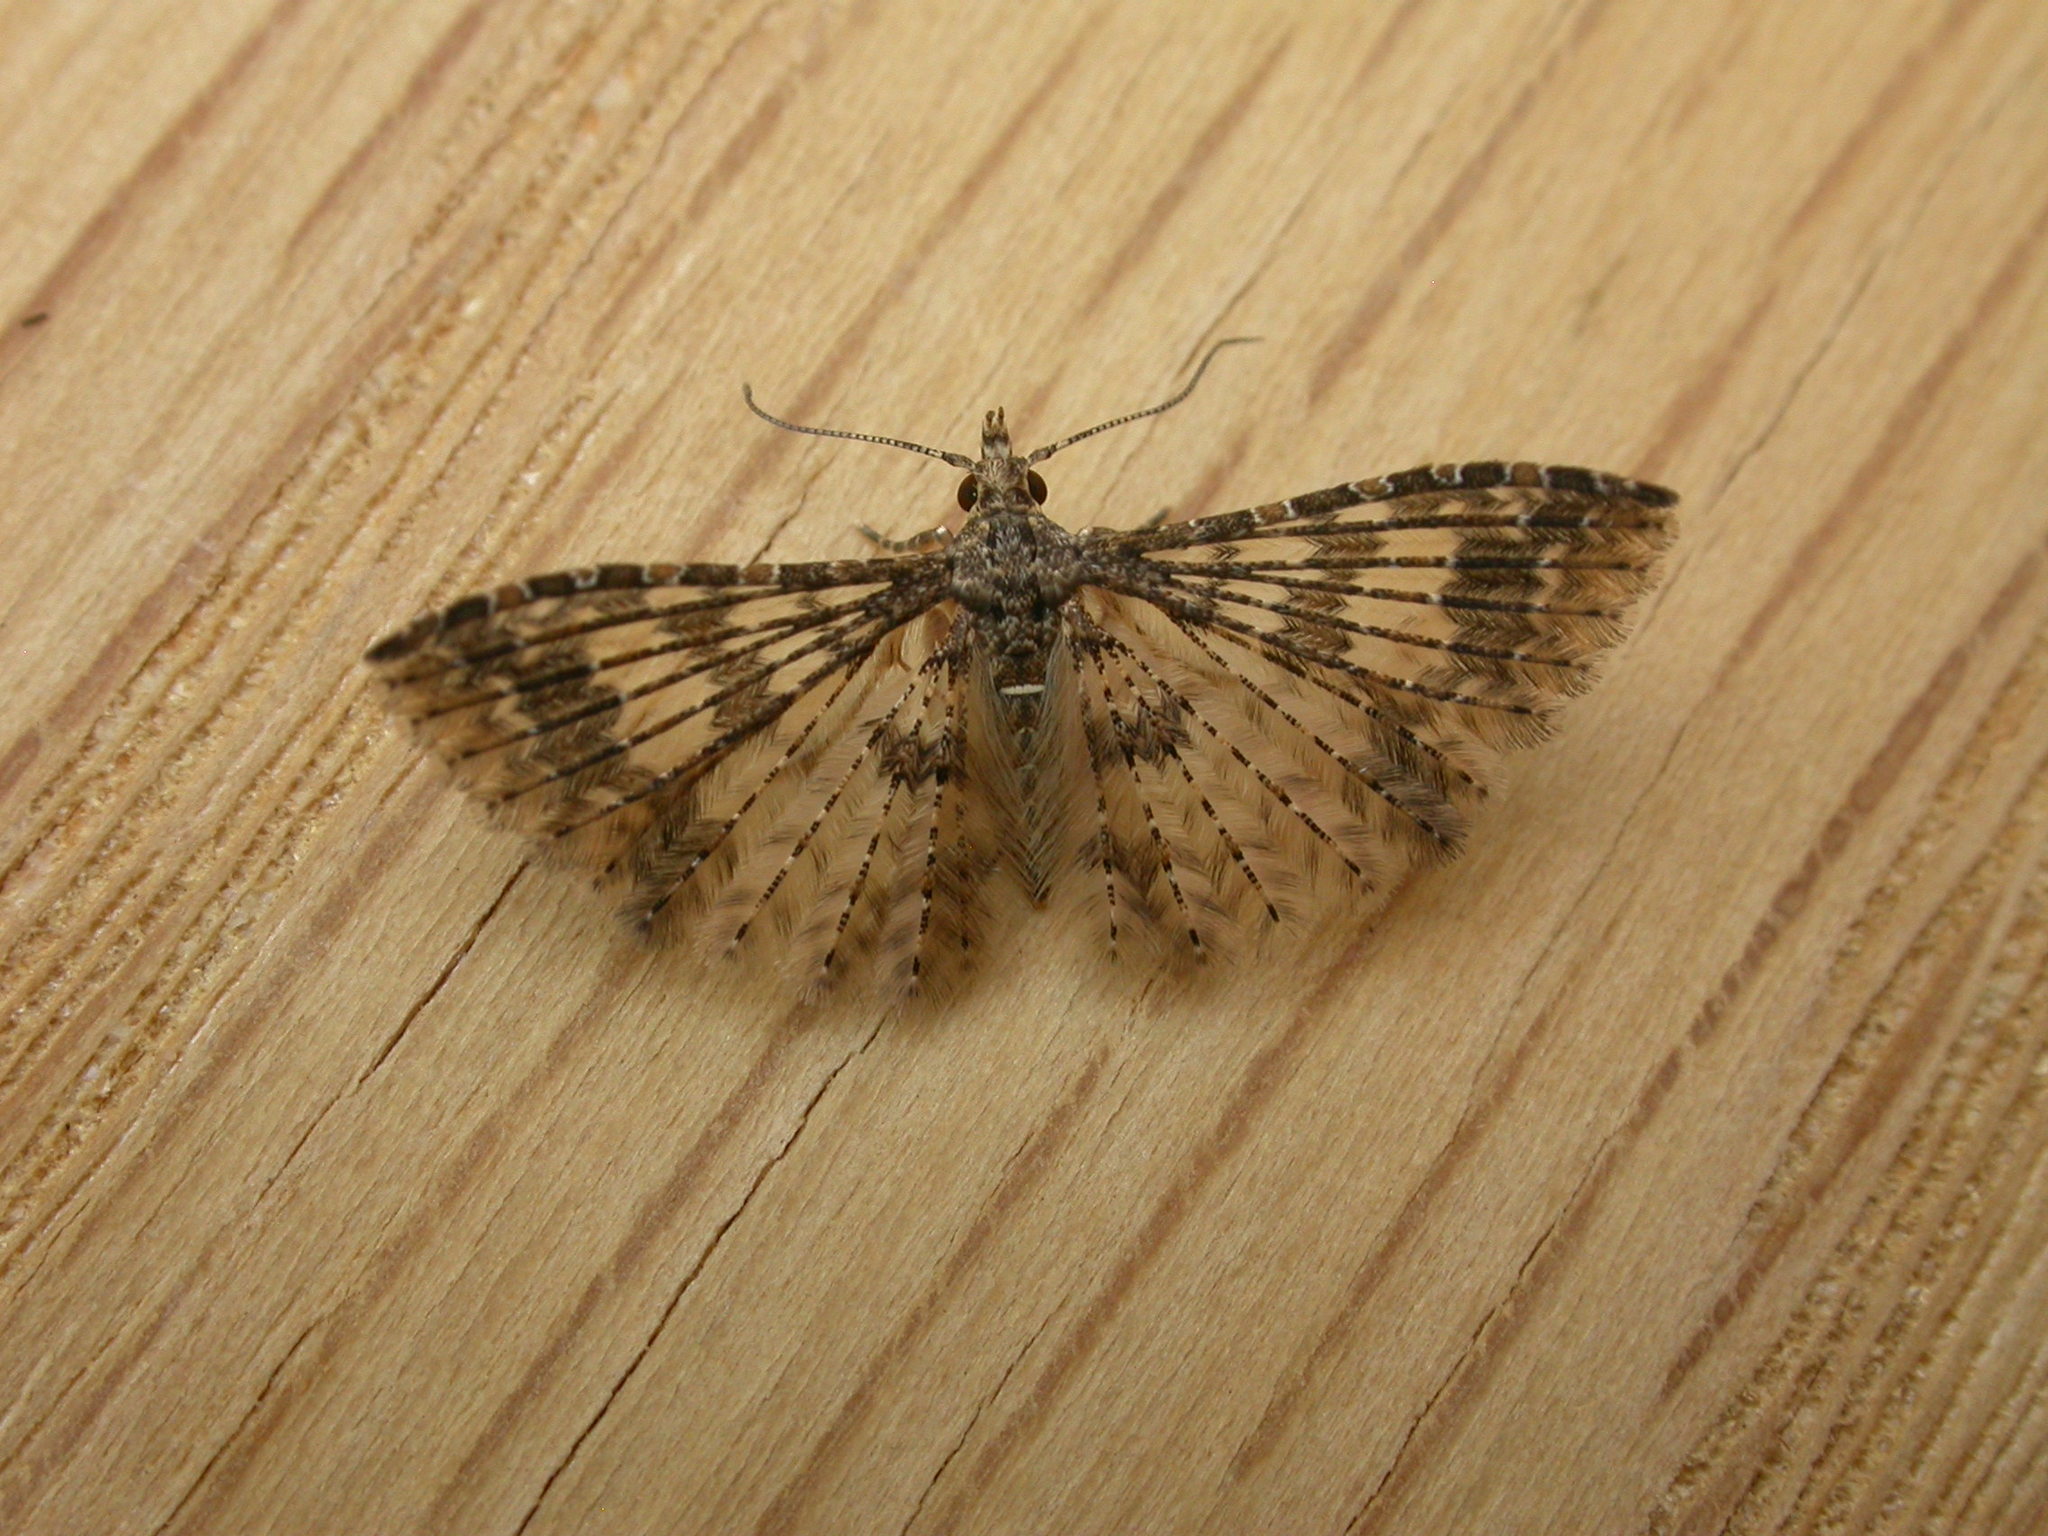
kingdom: Animalia
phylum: Arthropoda
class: Insecta
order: Lepidoptera
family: Alucitidae
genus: Alucita
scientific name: Alucita phricodes
